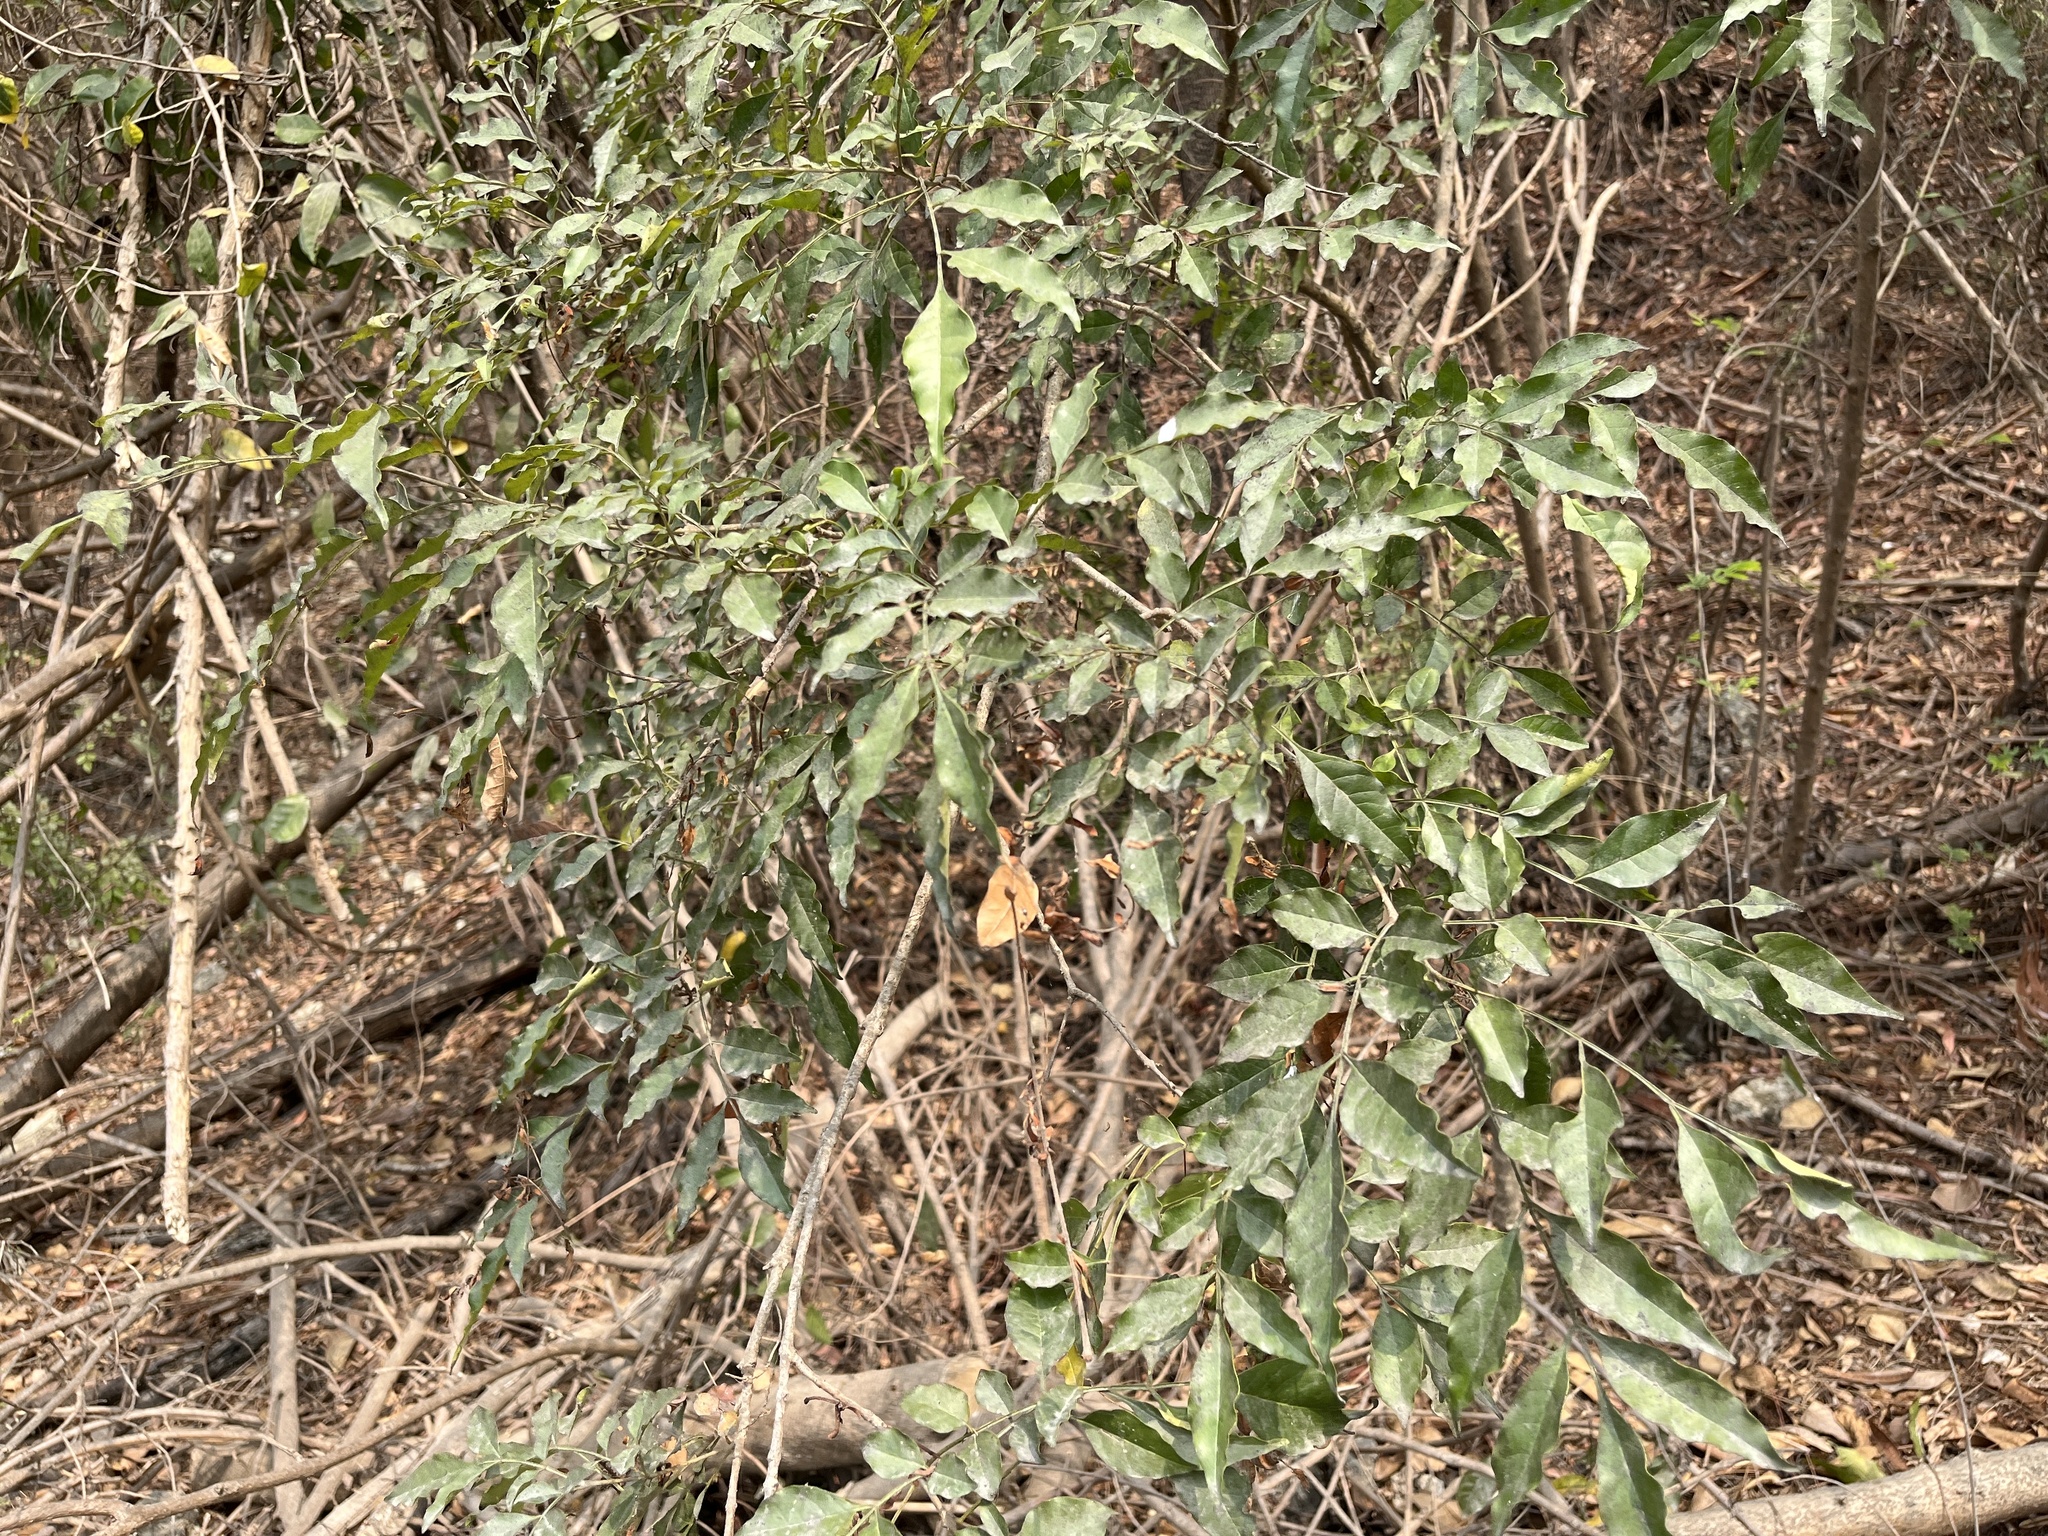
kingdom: Plantae
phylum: Tracheophyta
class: Magnoliopsida
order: Lamiales
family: Oleaceae
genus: Fraxinus
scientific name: Fraxinus griffithii
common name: Himalayan ash
